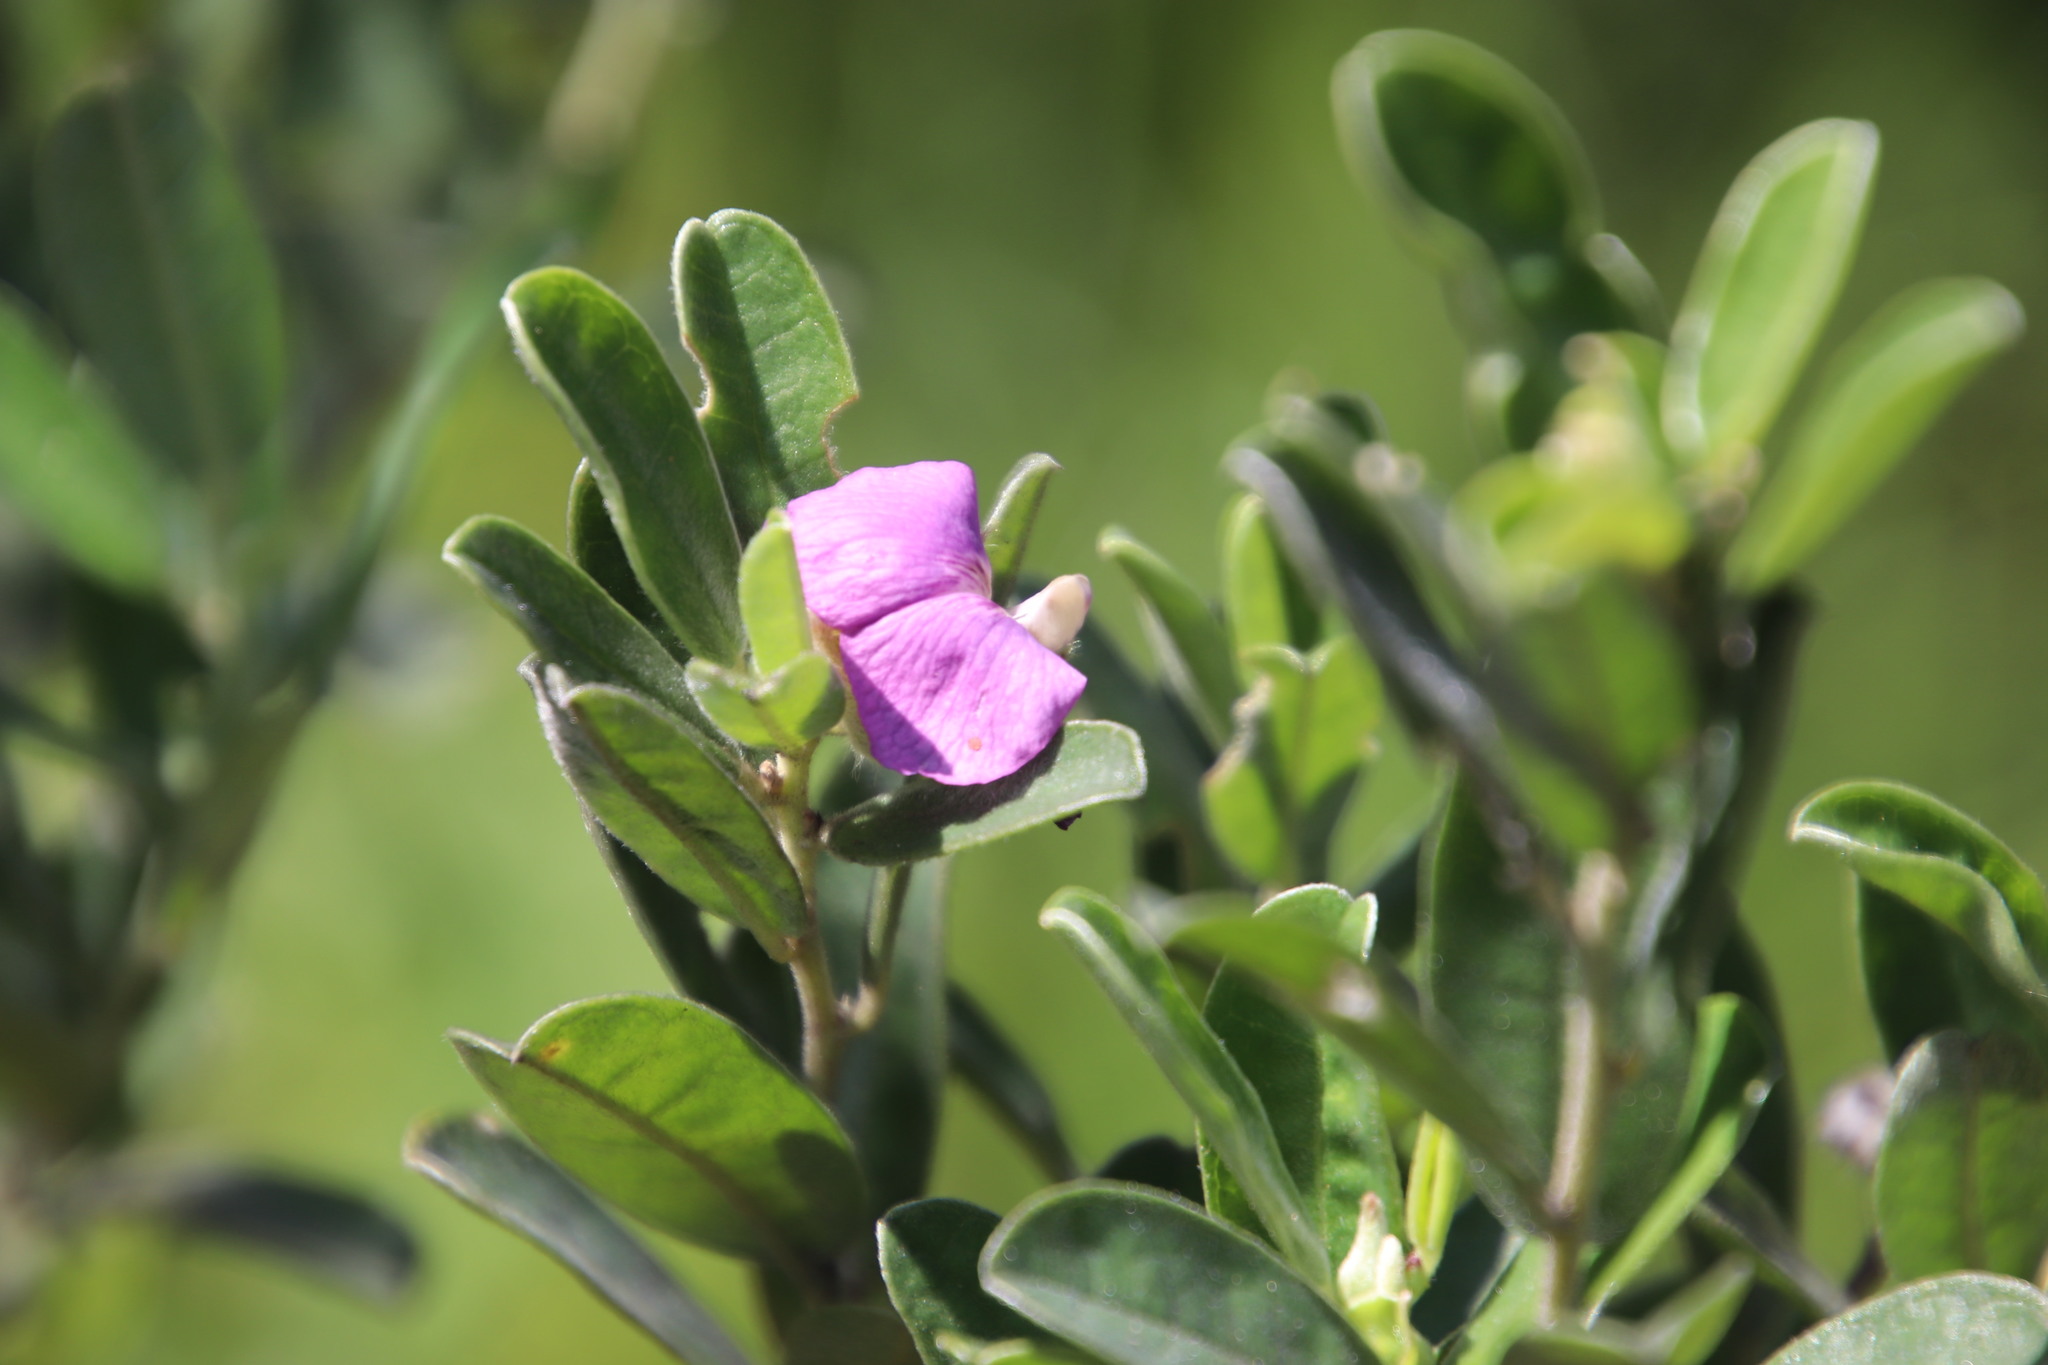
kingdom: Plantae
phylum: Tracheophyta
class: Magnoliopsida
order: Fabales
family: Fabaceae
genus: Podalyria
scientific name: Podalyria burchellii
